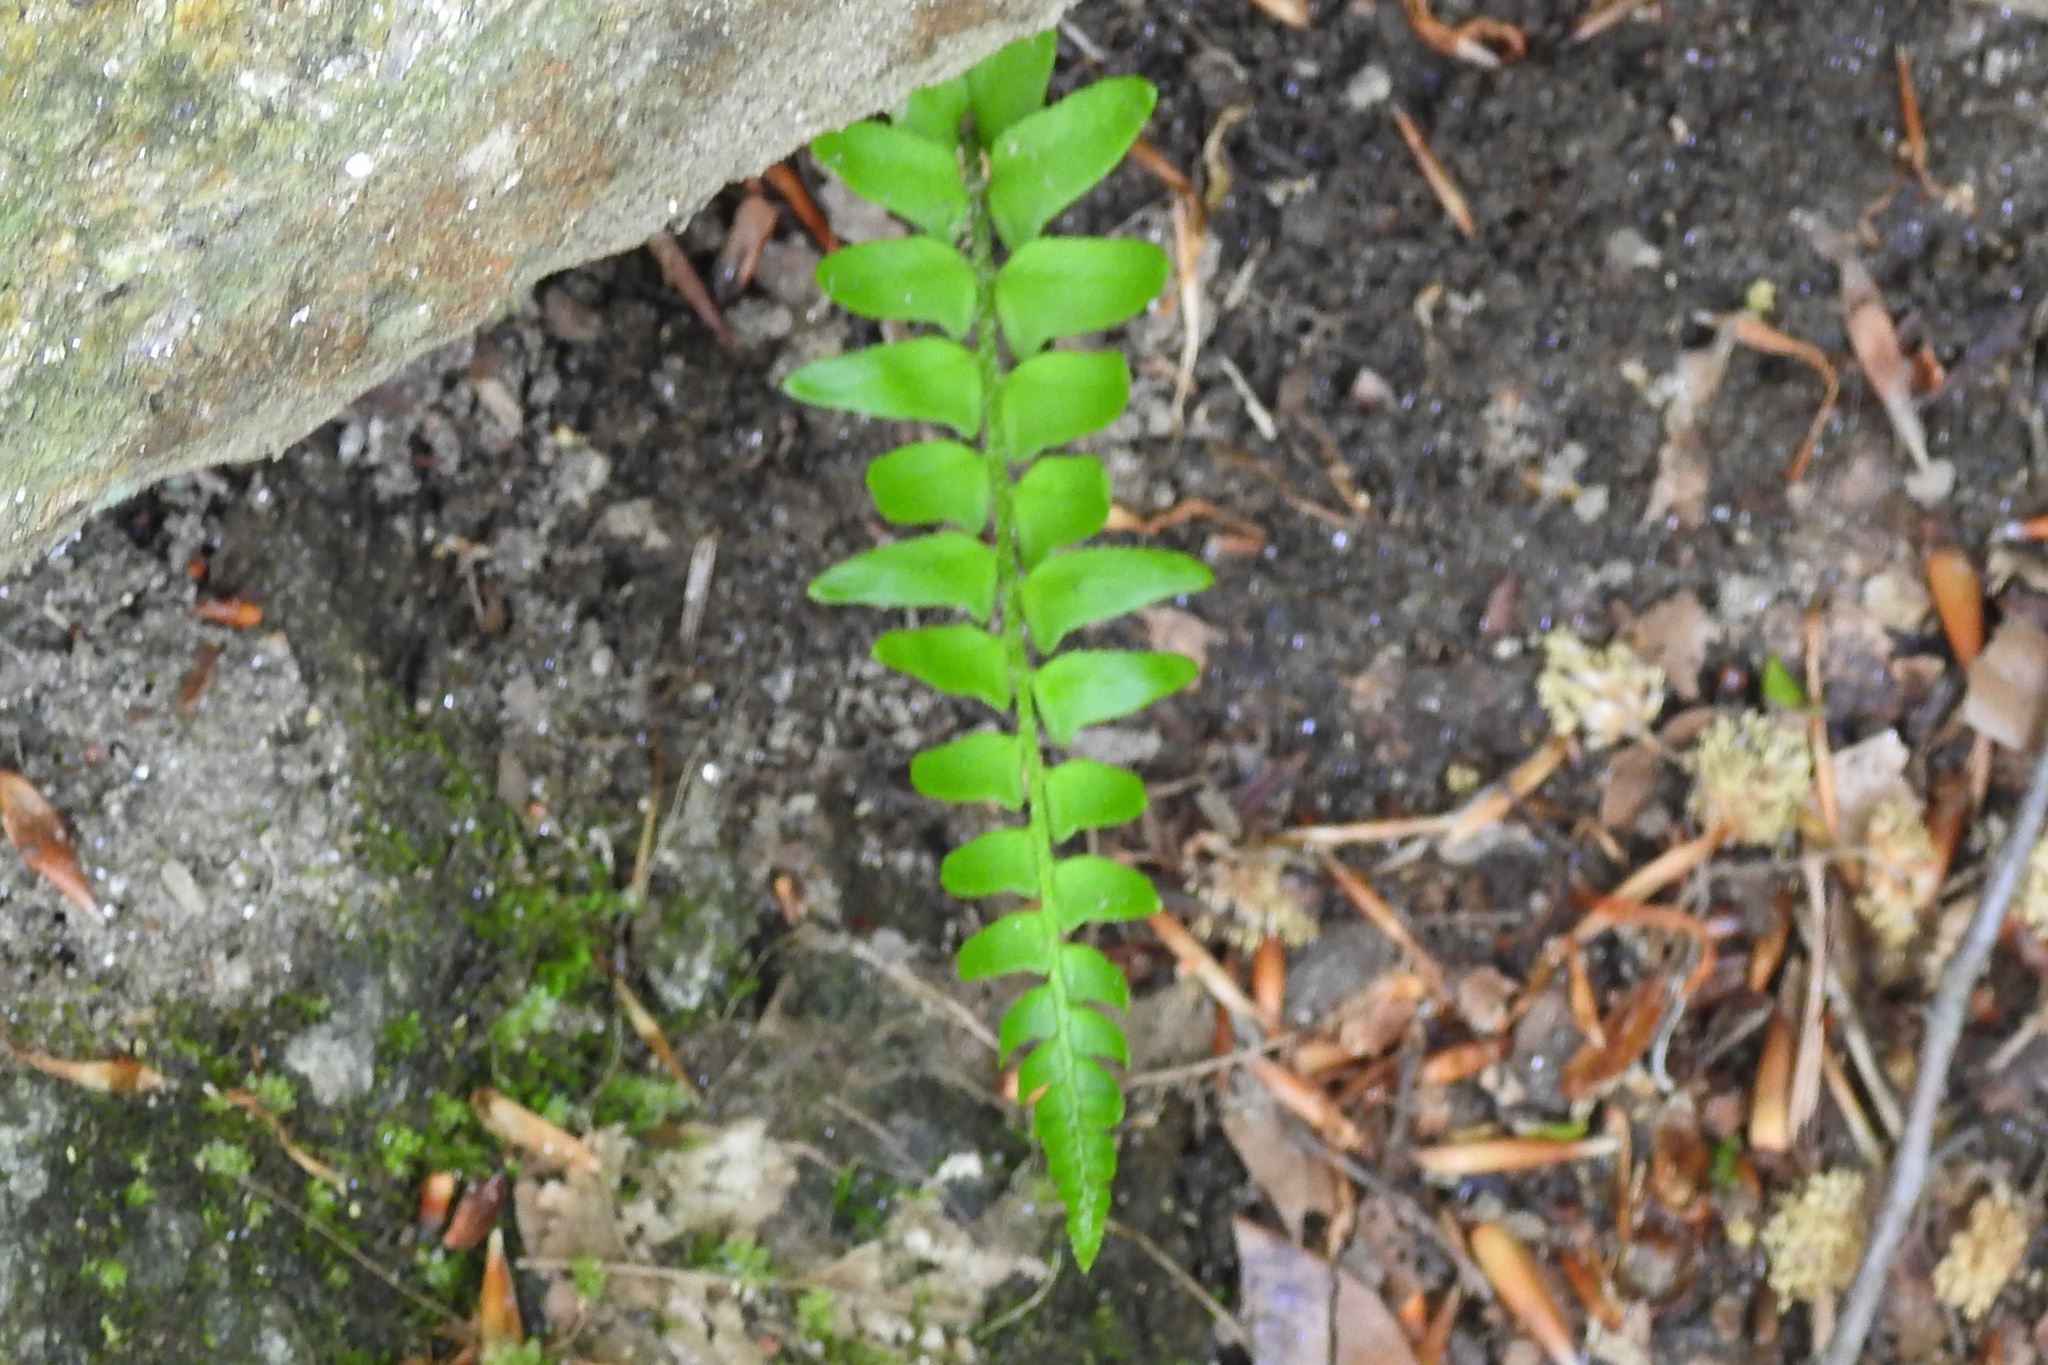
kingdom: Plantae
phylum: Tracheophyta
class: Polypodiopsida
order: Polypodiales
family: Dryopteridaceae
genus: Polystichum
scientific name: Polystichum acrostichoides
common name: Christmas fern
